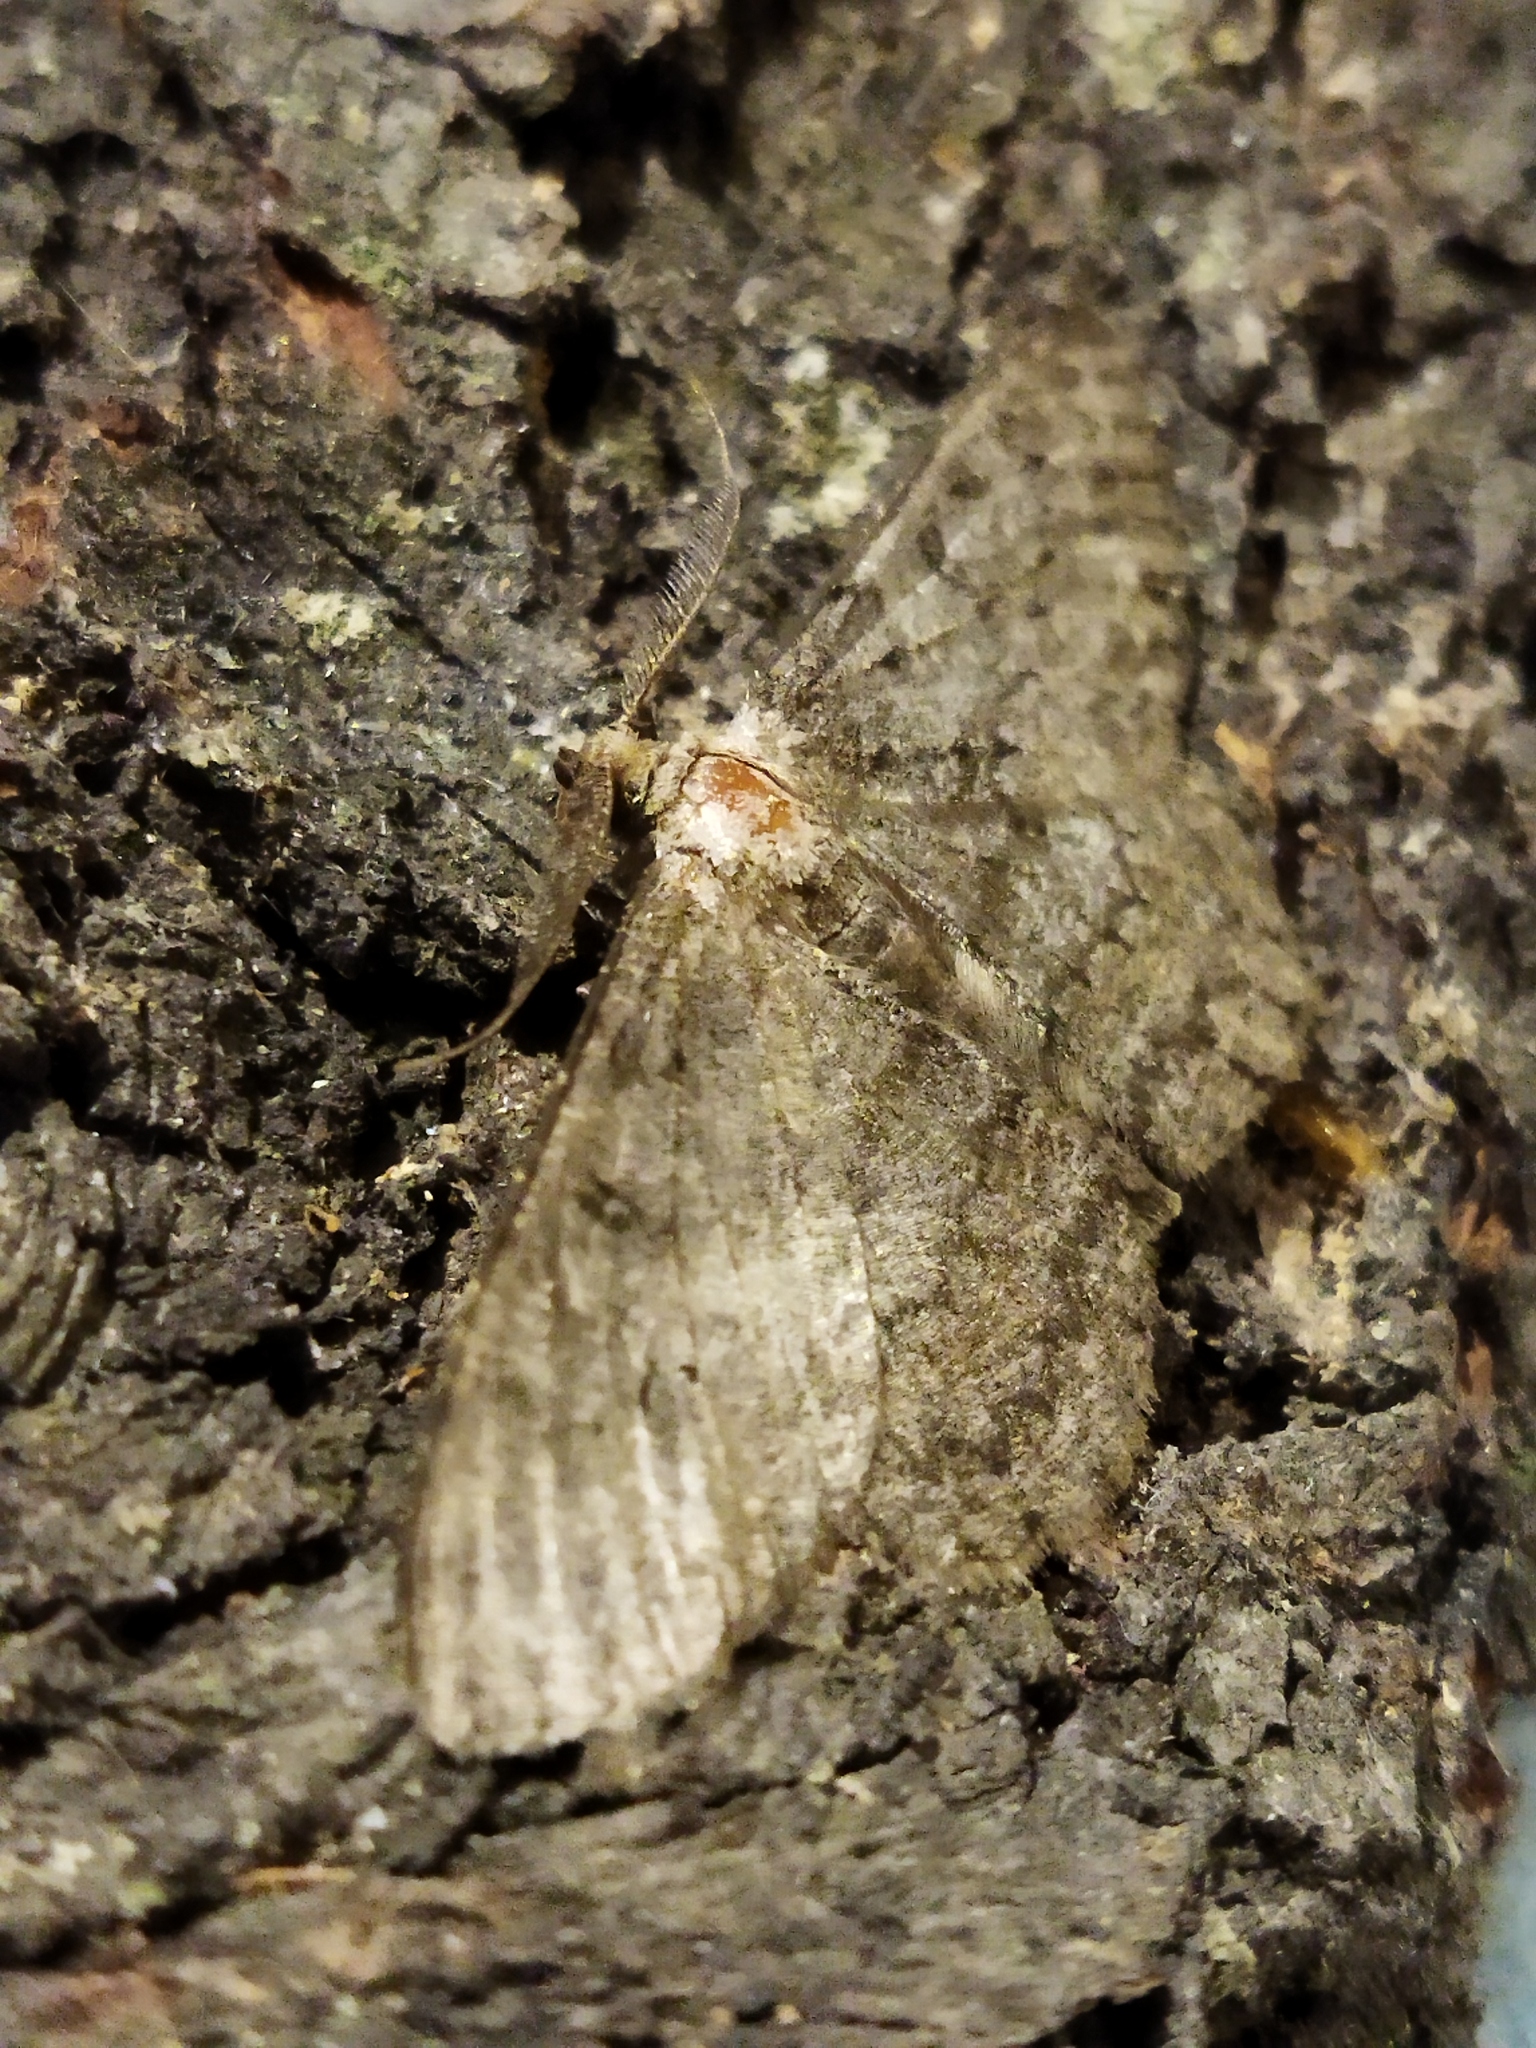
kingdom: Animalia
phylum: Arthropoda
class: Insecta
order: Lepidoptera
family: Geometridae
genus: Hypomecis
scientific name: Hypomecis punctinalis
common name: Pale oak beauty
